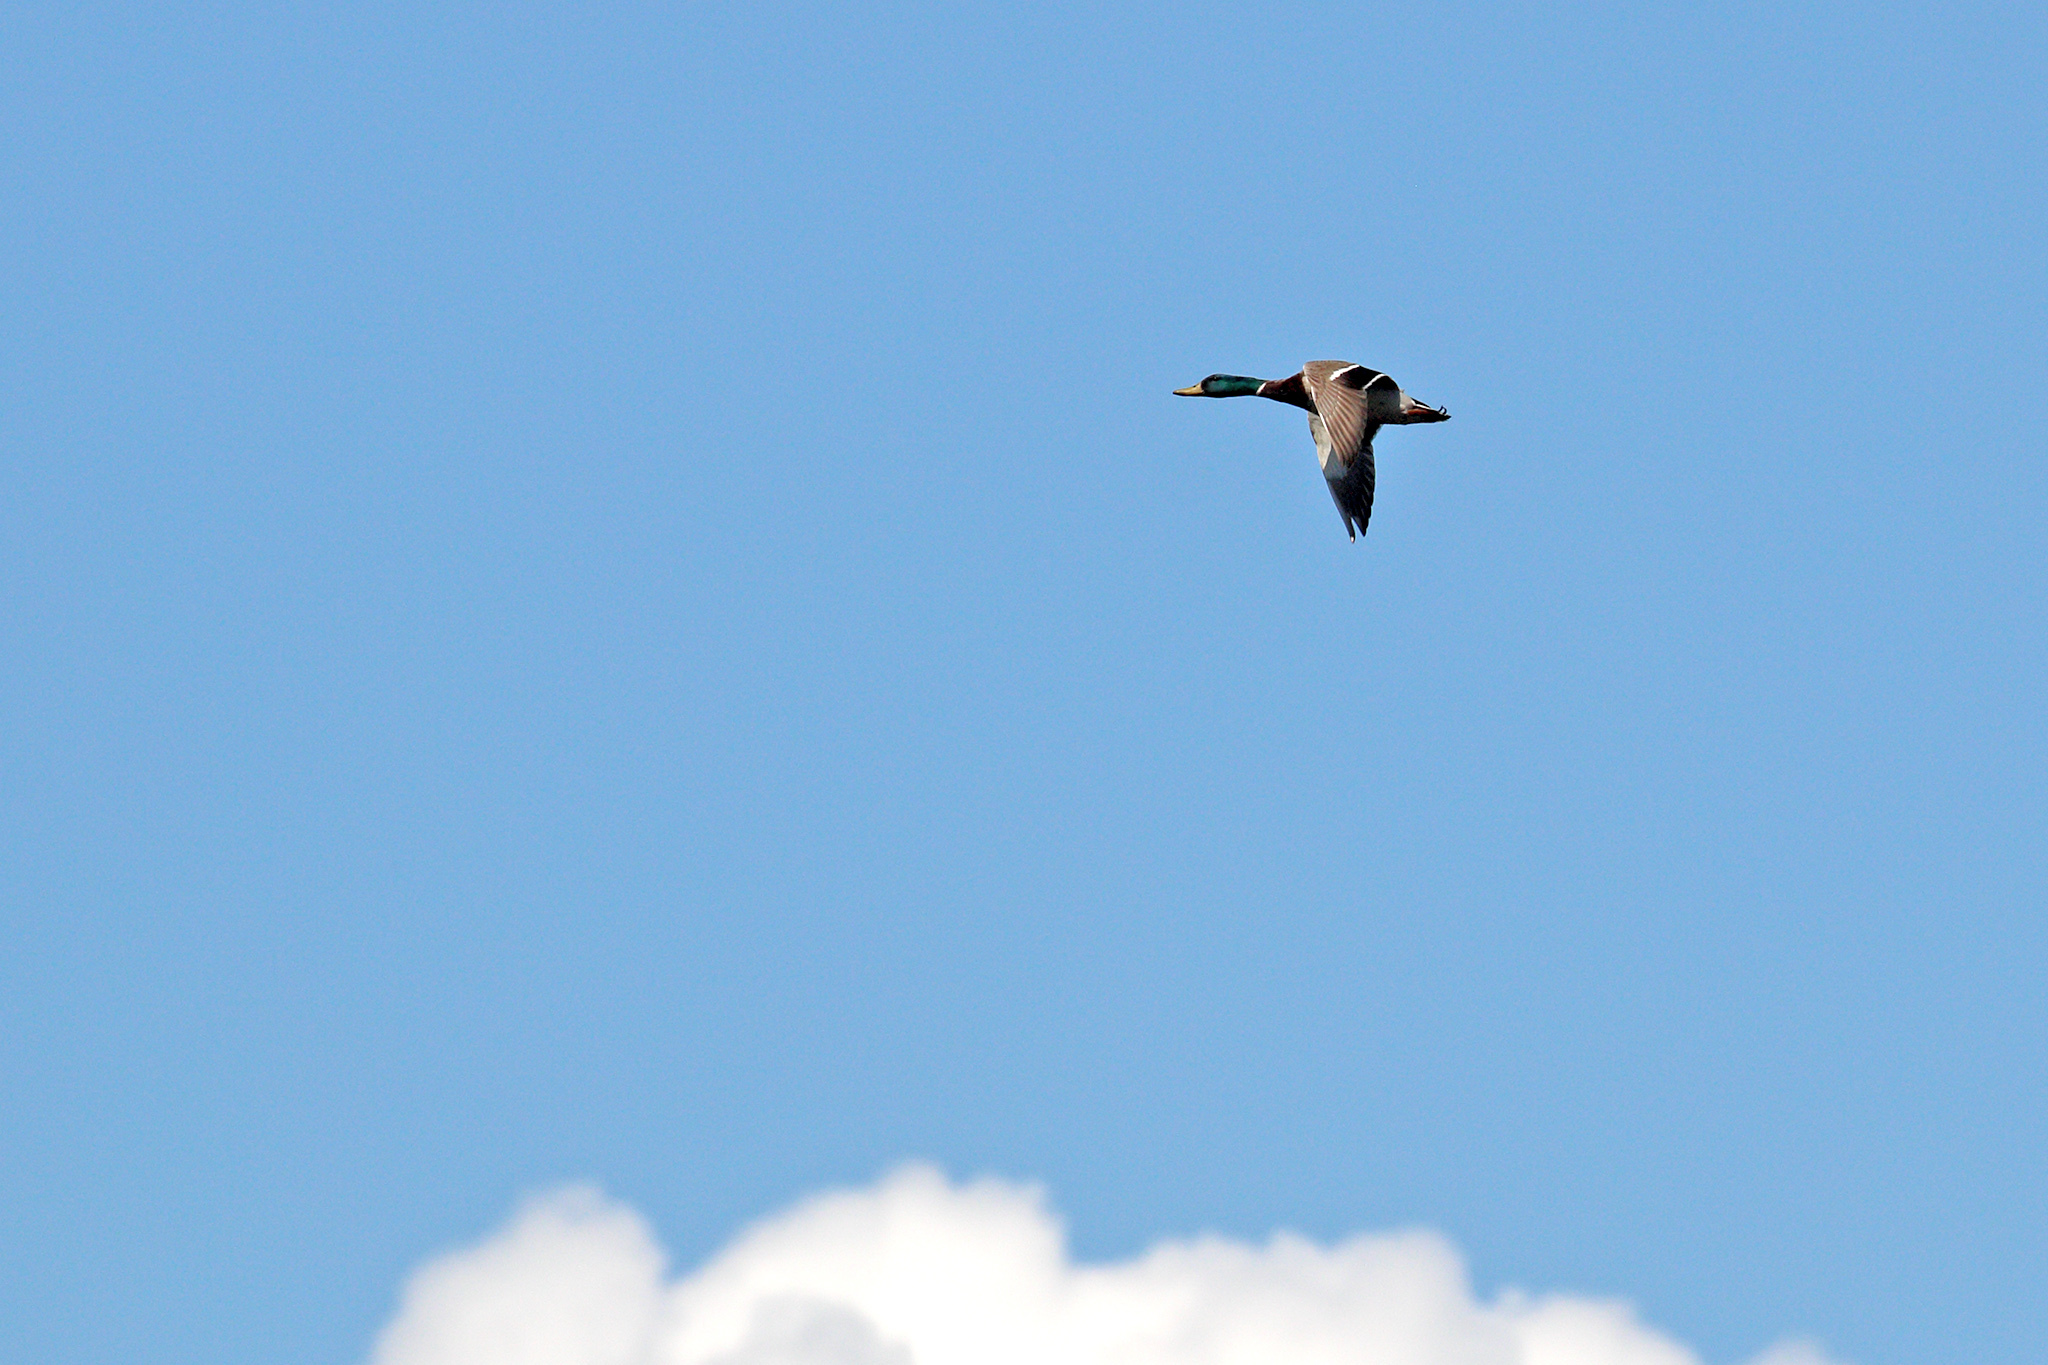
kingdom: Animalia
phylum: Chordata
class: Aves
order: Anseriformes
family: Anatidae
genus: Anas
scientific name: Anas platyrhynchos
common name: Mallard
